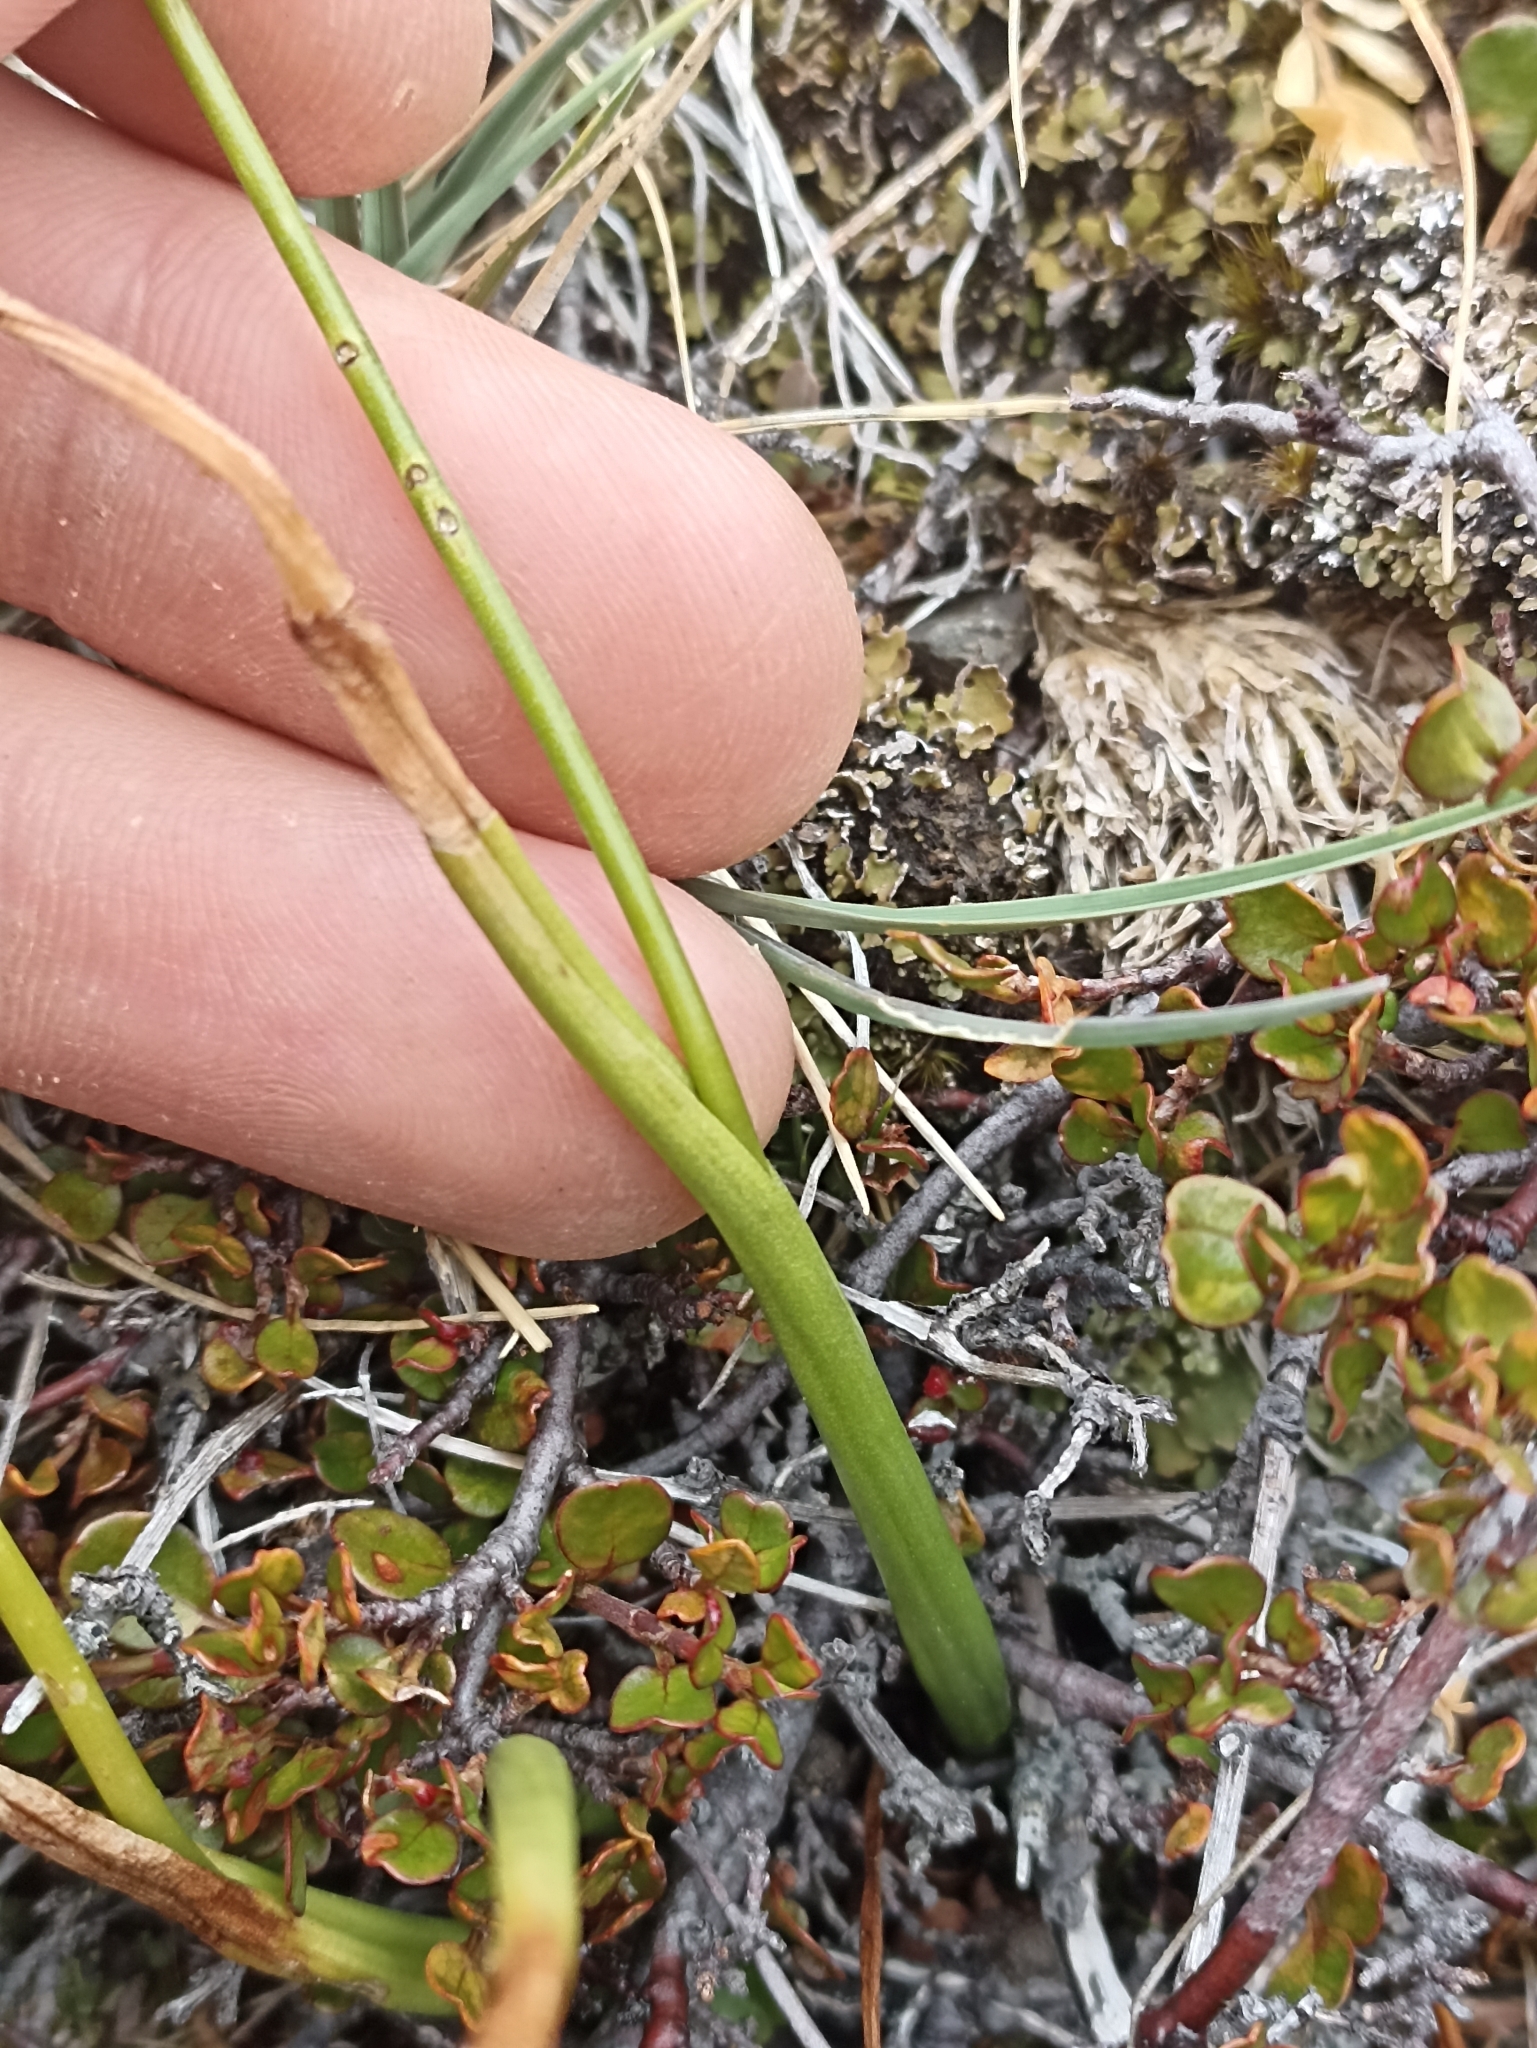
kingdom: Plantae
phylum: Tracheophyta
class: Liliopsida
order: Asparagales
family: Orchidaceae
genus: Microtis
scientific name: Microtis unifolia
